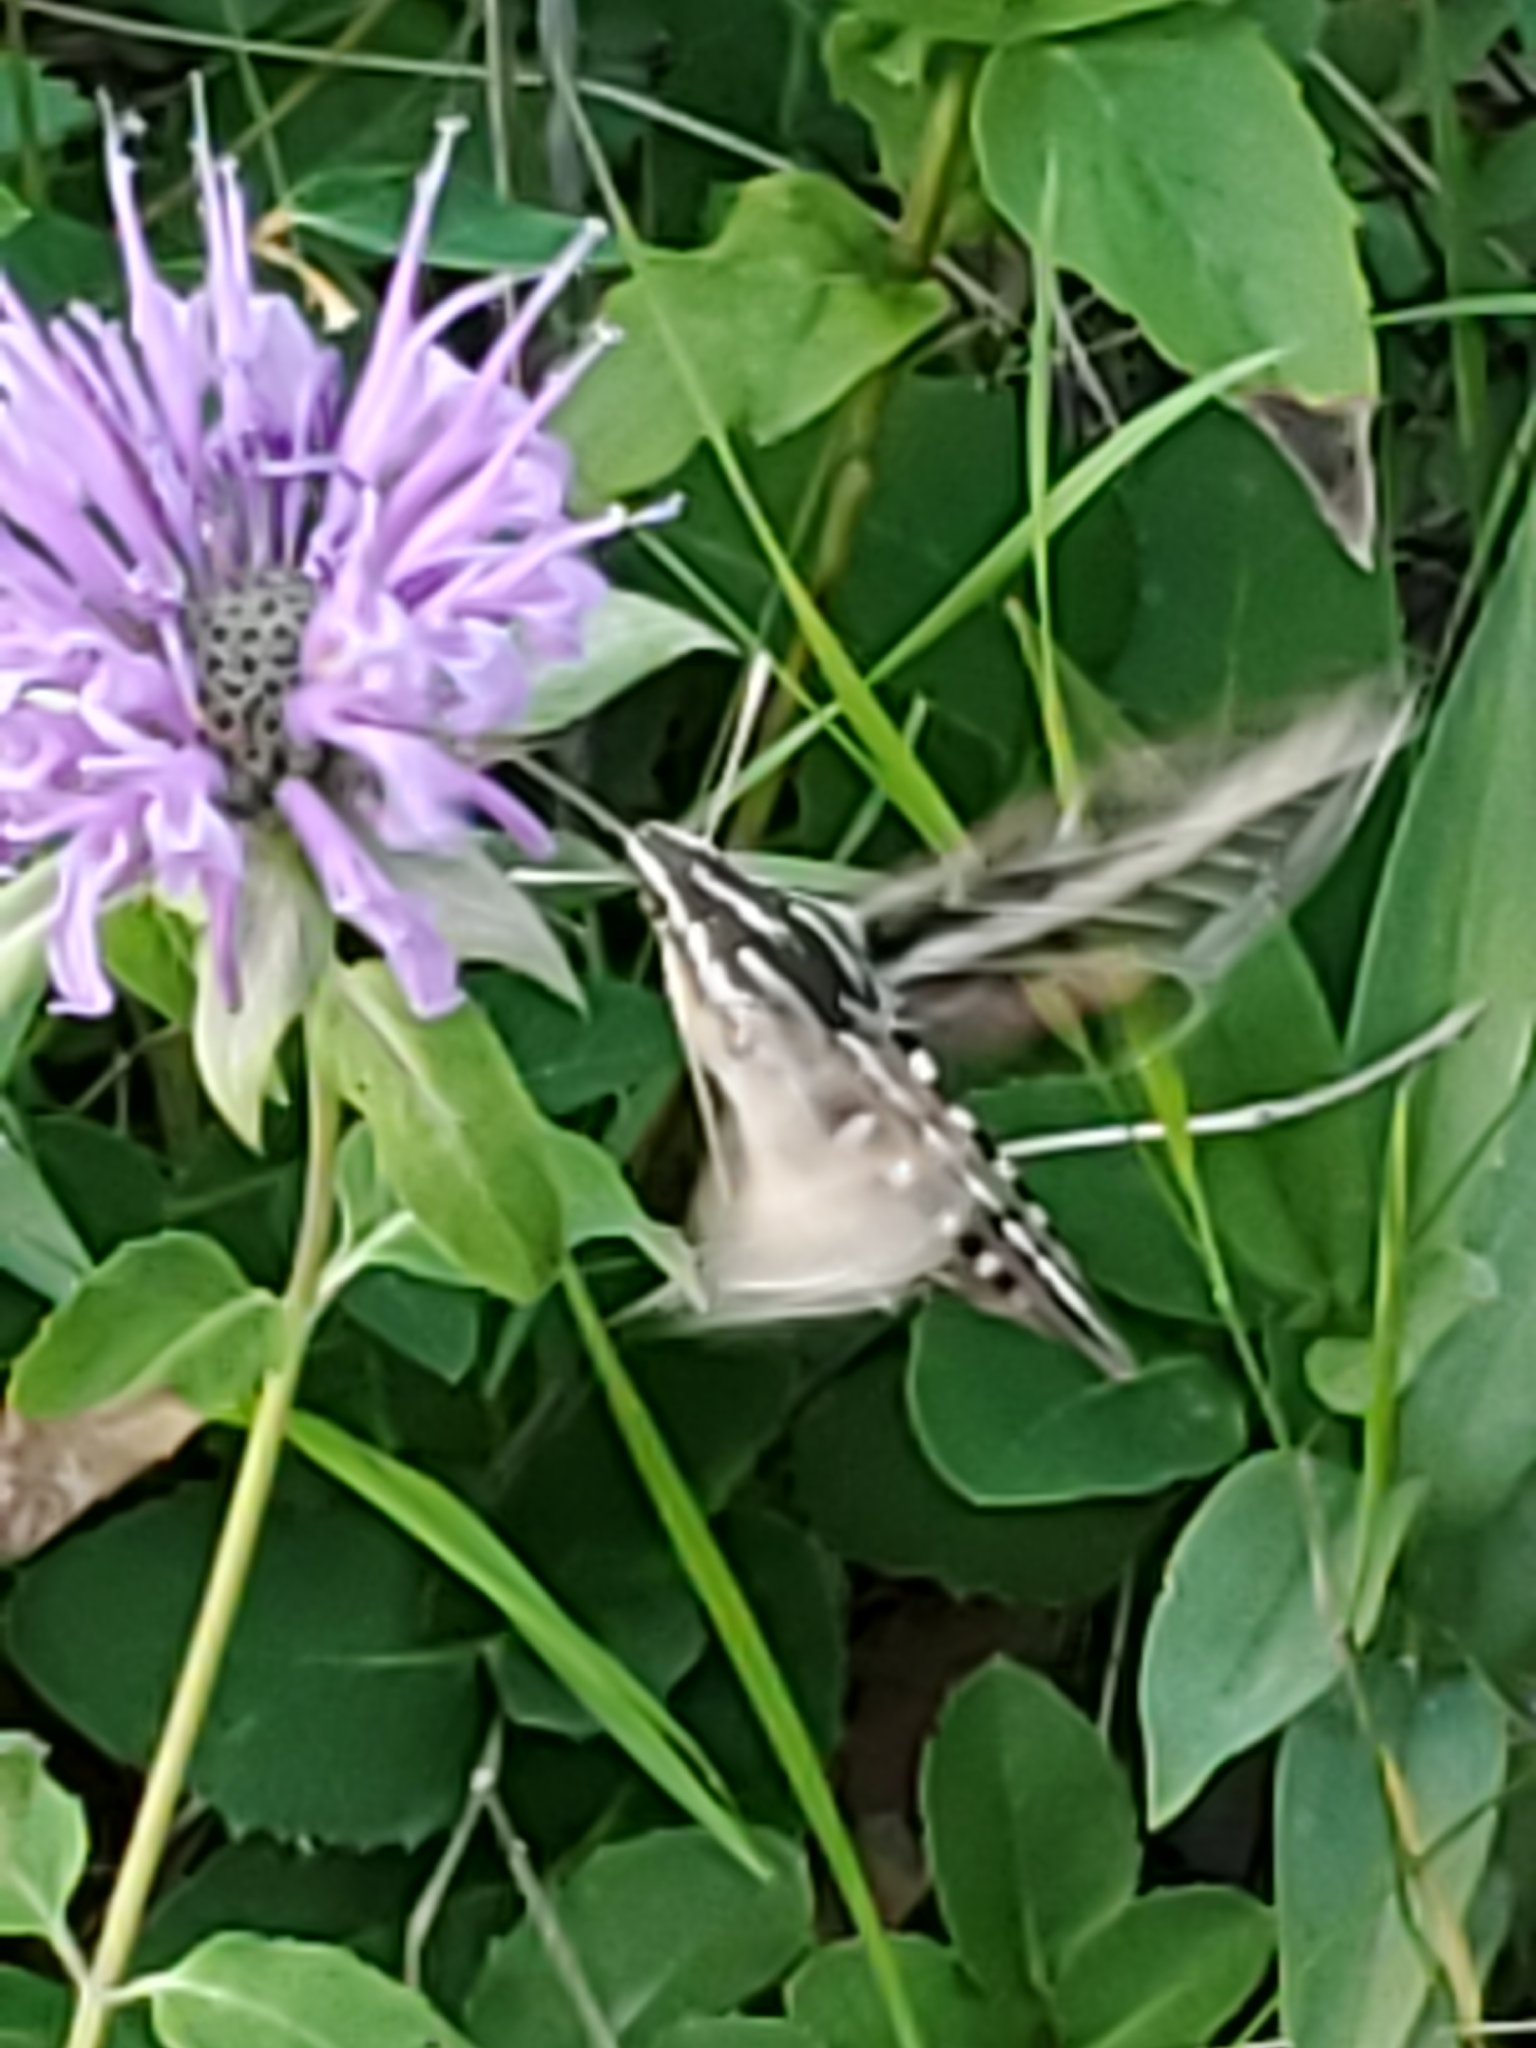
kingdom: Animalia
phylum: Arthropoda
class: Insecta
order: Lepidoptera
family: Sphingidae
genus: Hyles
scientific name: Hyles lineata
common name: White-lined sphinx
